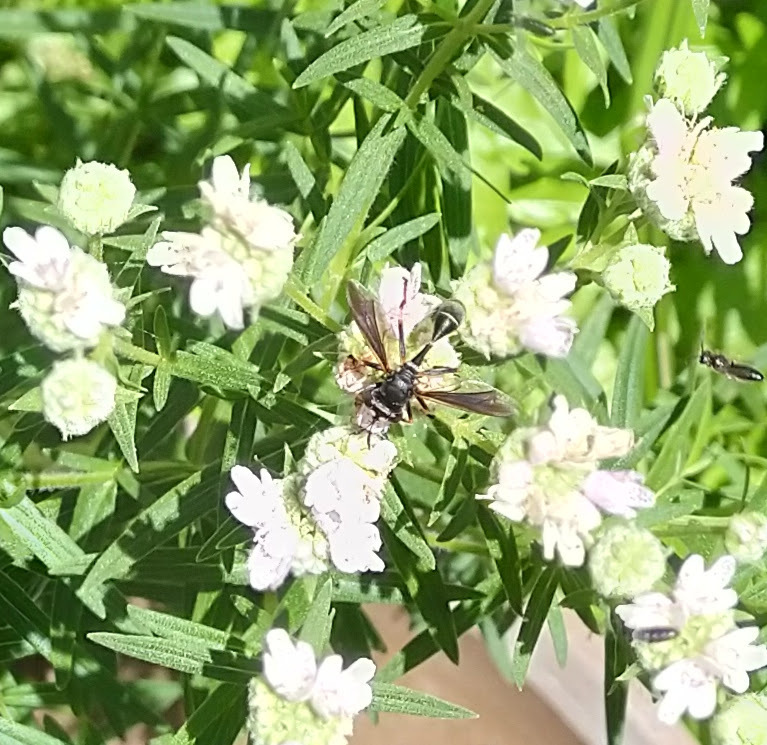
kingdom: Animalia
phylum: Arthropoda
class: Insecta
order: Diptera
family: Conopidae
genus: Physocephala
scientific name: Physocephala tibialis
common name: Common eastern physocephala
